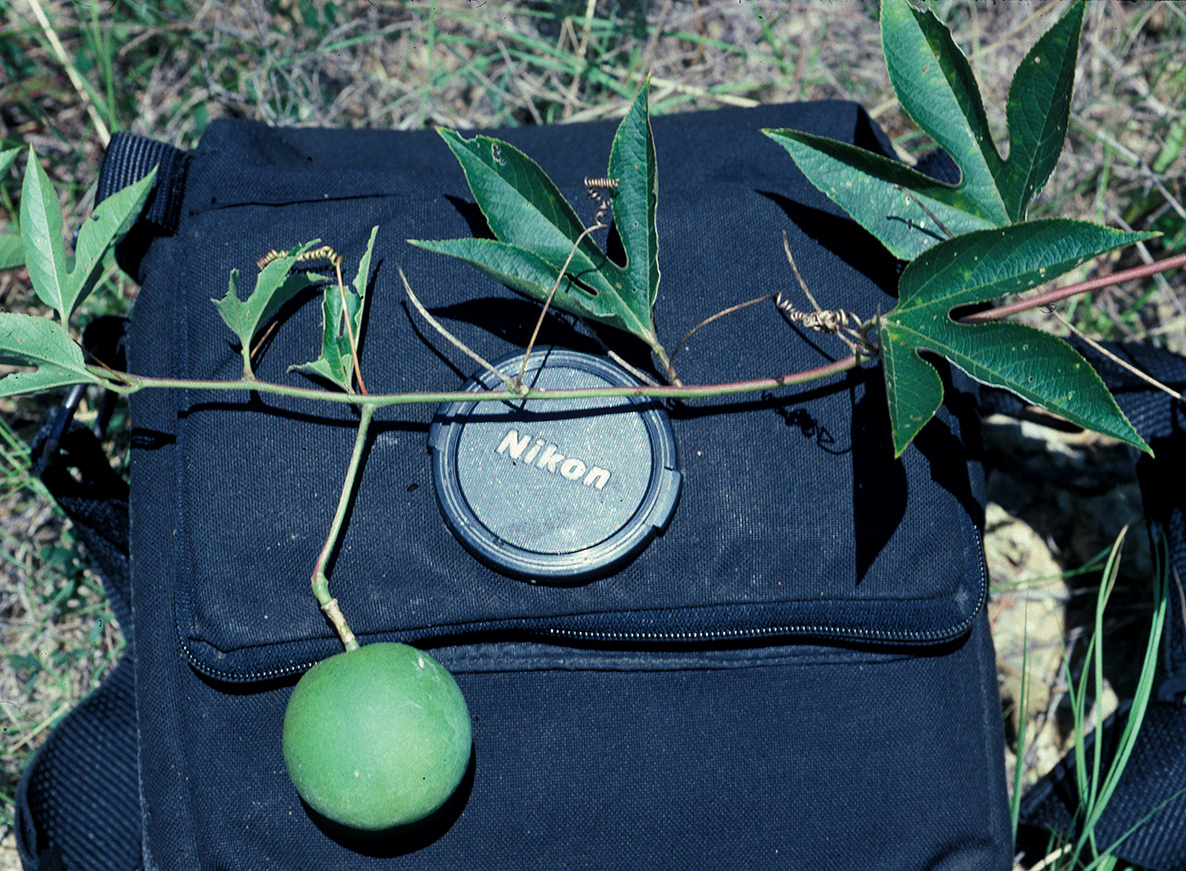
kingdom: Plantae
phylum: Tracheophyta
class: Magnoliopsida
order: Malpighiales
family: Passifloraceae
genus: Passiflora
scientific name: Passiflora incarnata
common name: Apricot-vine
